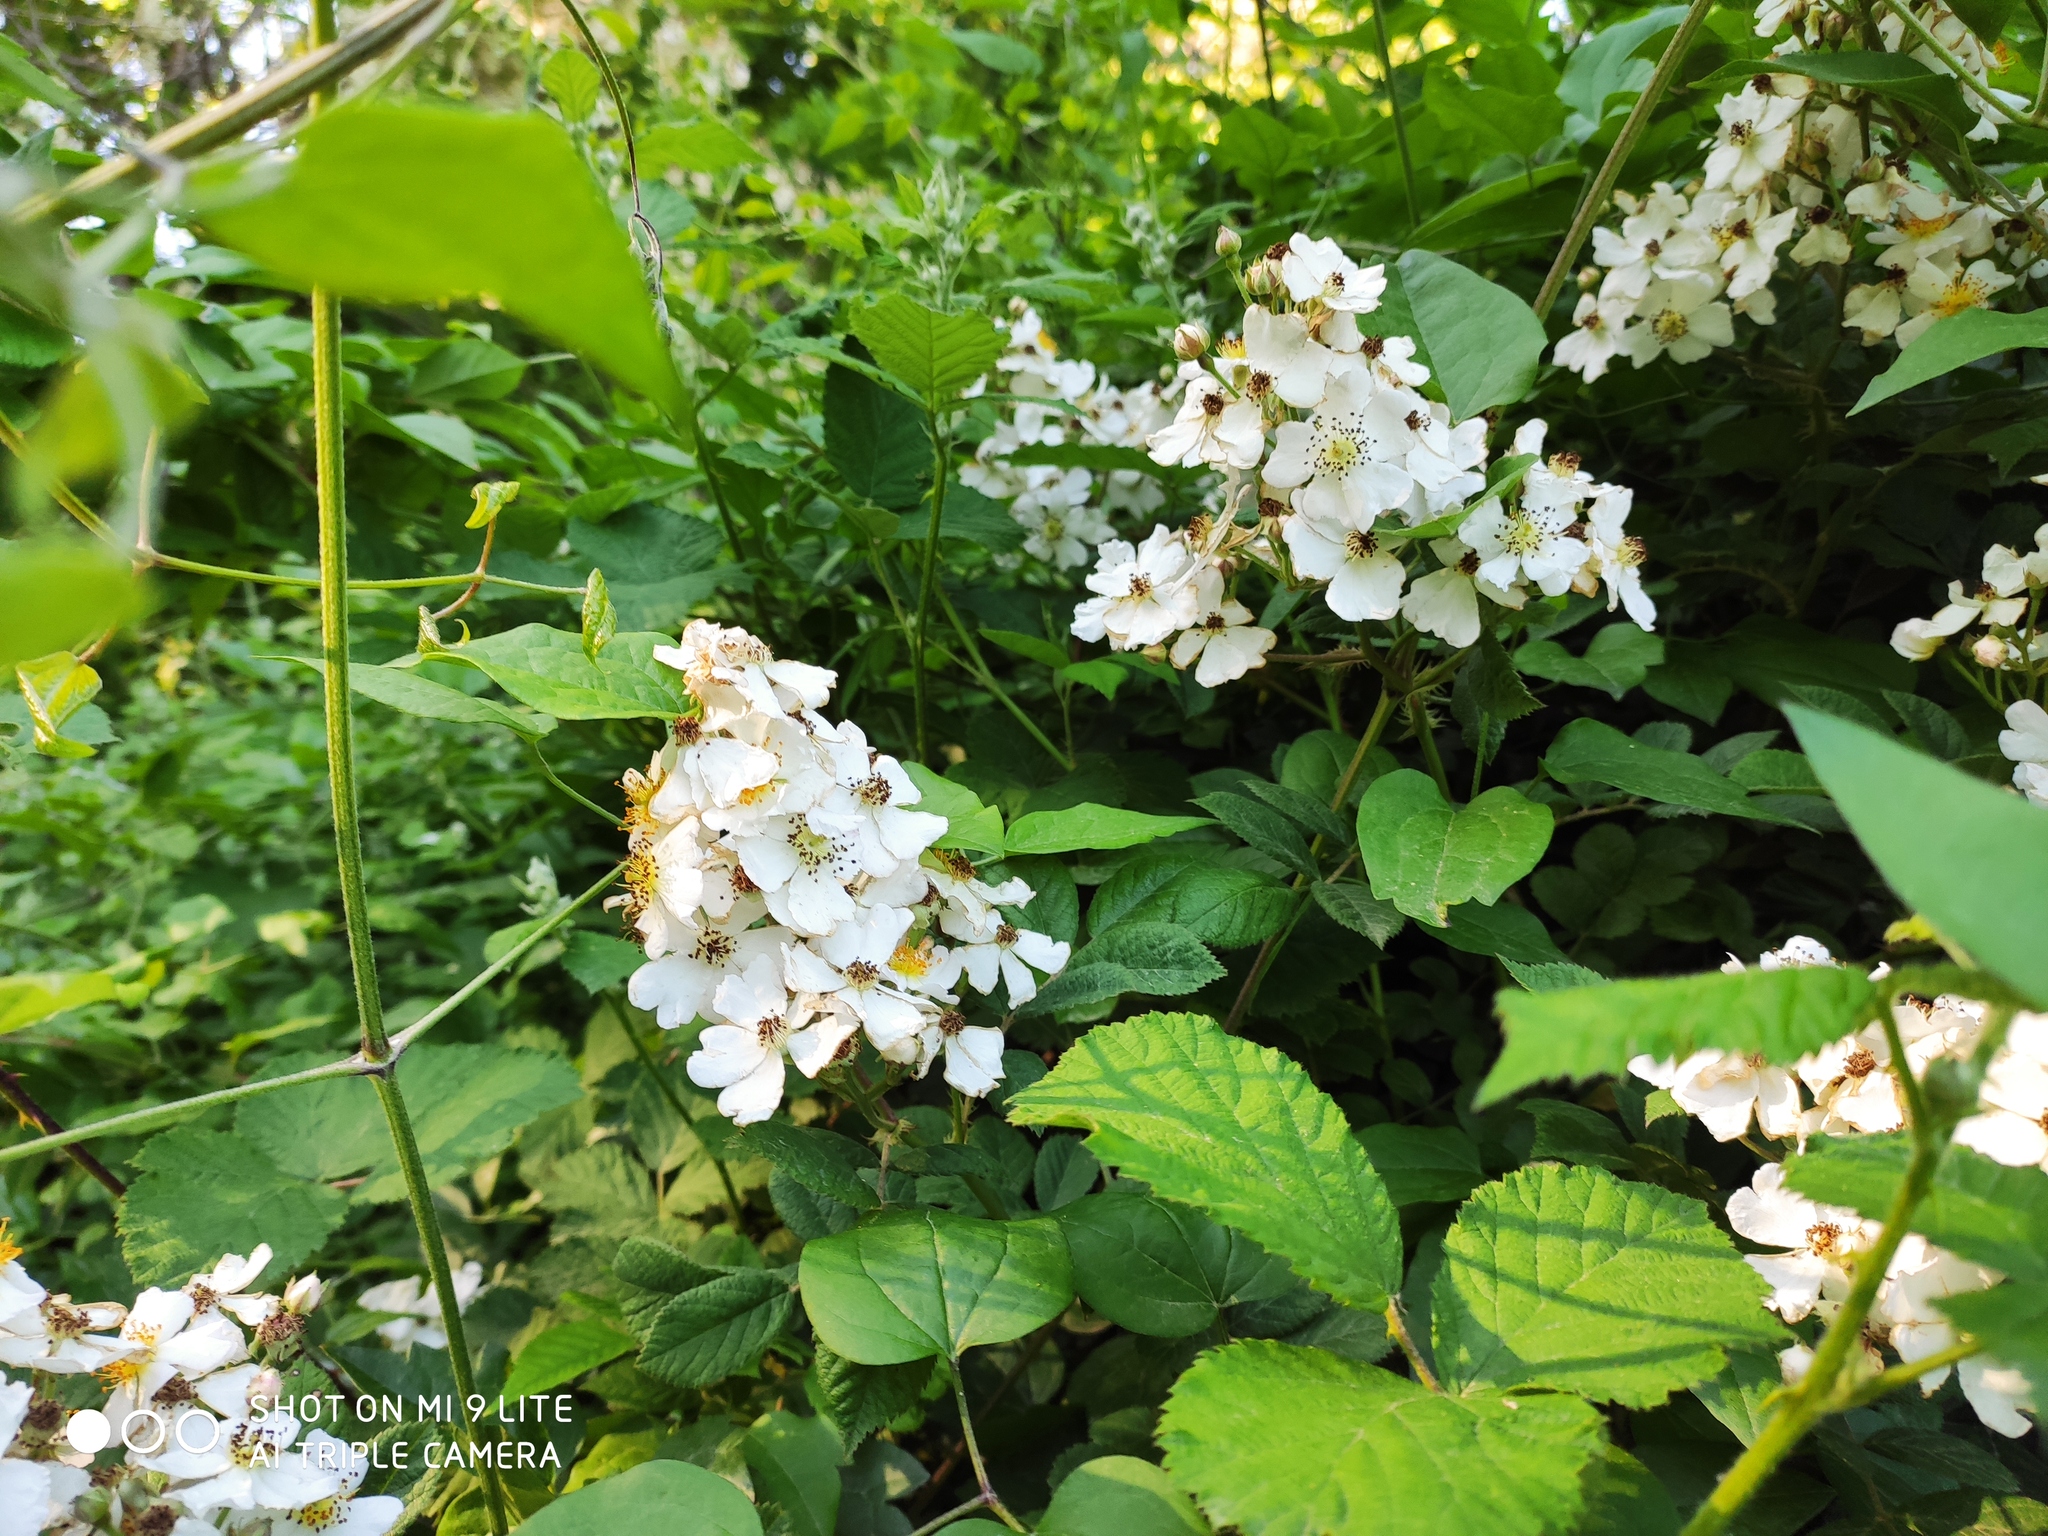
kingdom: Plantae
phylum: Tracheophyta
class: Magnoliopsida
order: Rosales
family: Rosaceae
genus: Rosa
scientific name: Rosa multiflora
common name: Multiflora rose
